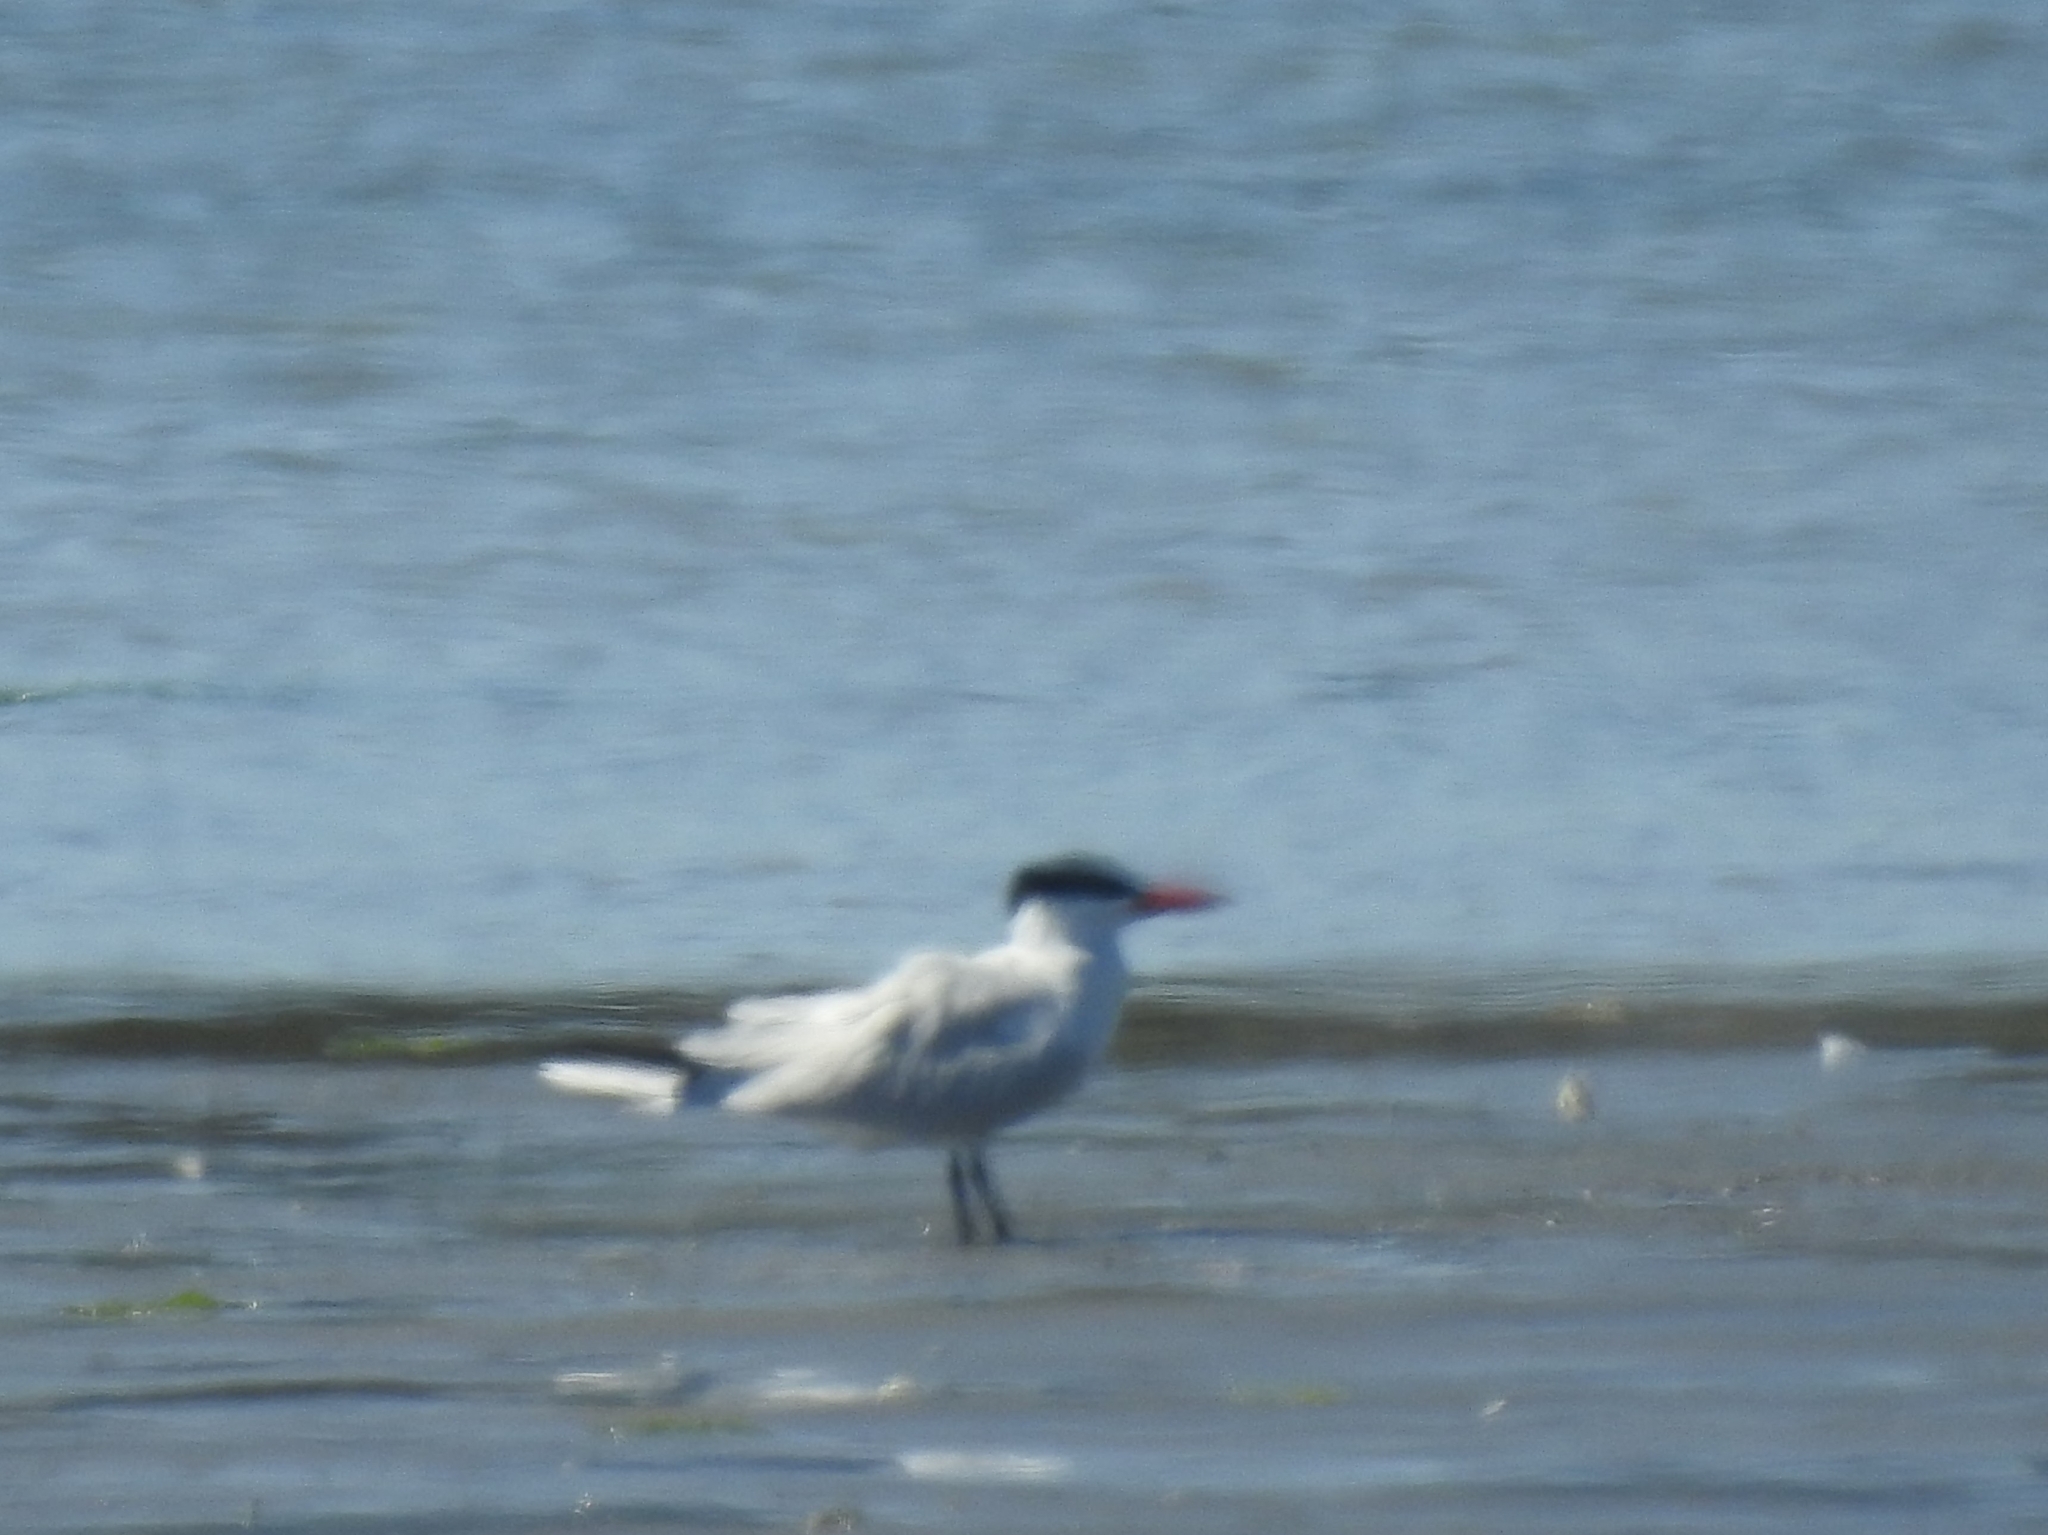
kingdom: Animalia
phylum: Chordata
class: Aves
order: Charadriiformes
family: Laridae
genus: Hydroprogne
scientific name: Hydroprogne caspia
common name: Caspian tern
